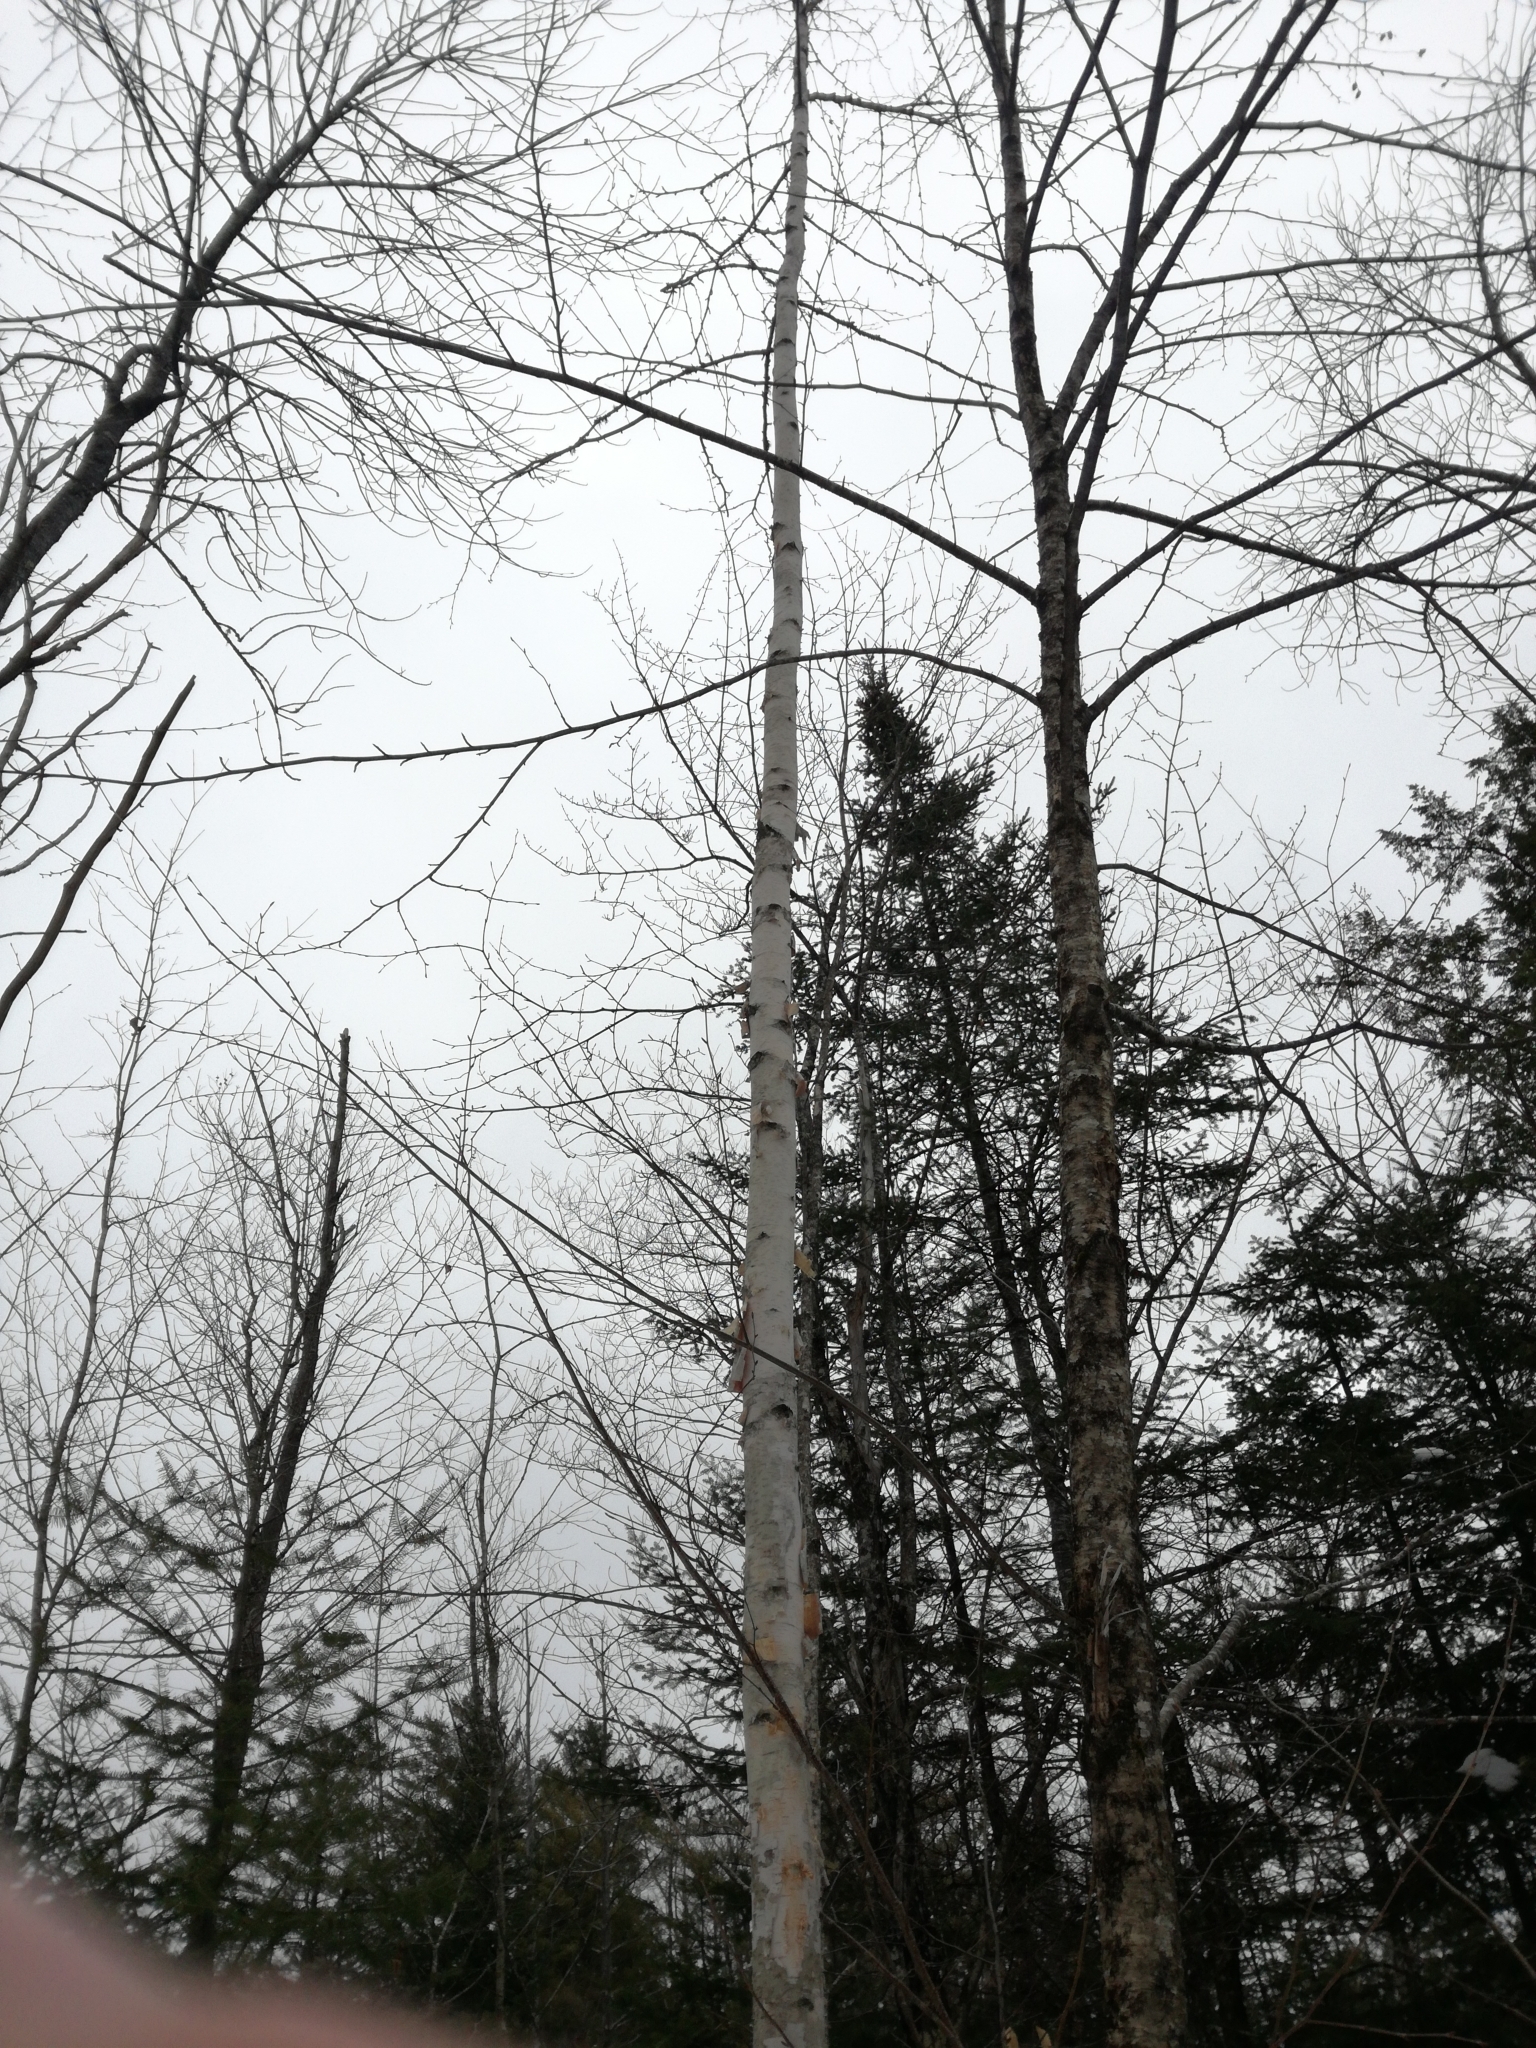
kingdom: Plantae
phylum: Tracheophyta
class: Magnoliopsida
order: Fagales
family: Betulaceae
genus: Betula
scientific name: Betula papyrifera
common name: Paper birch
